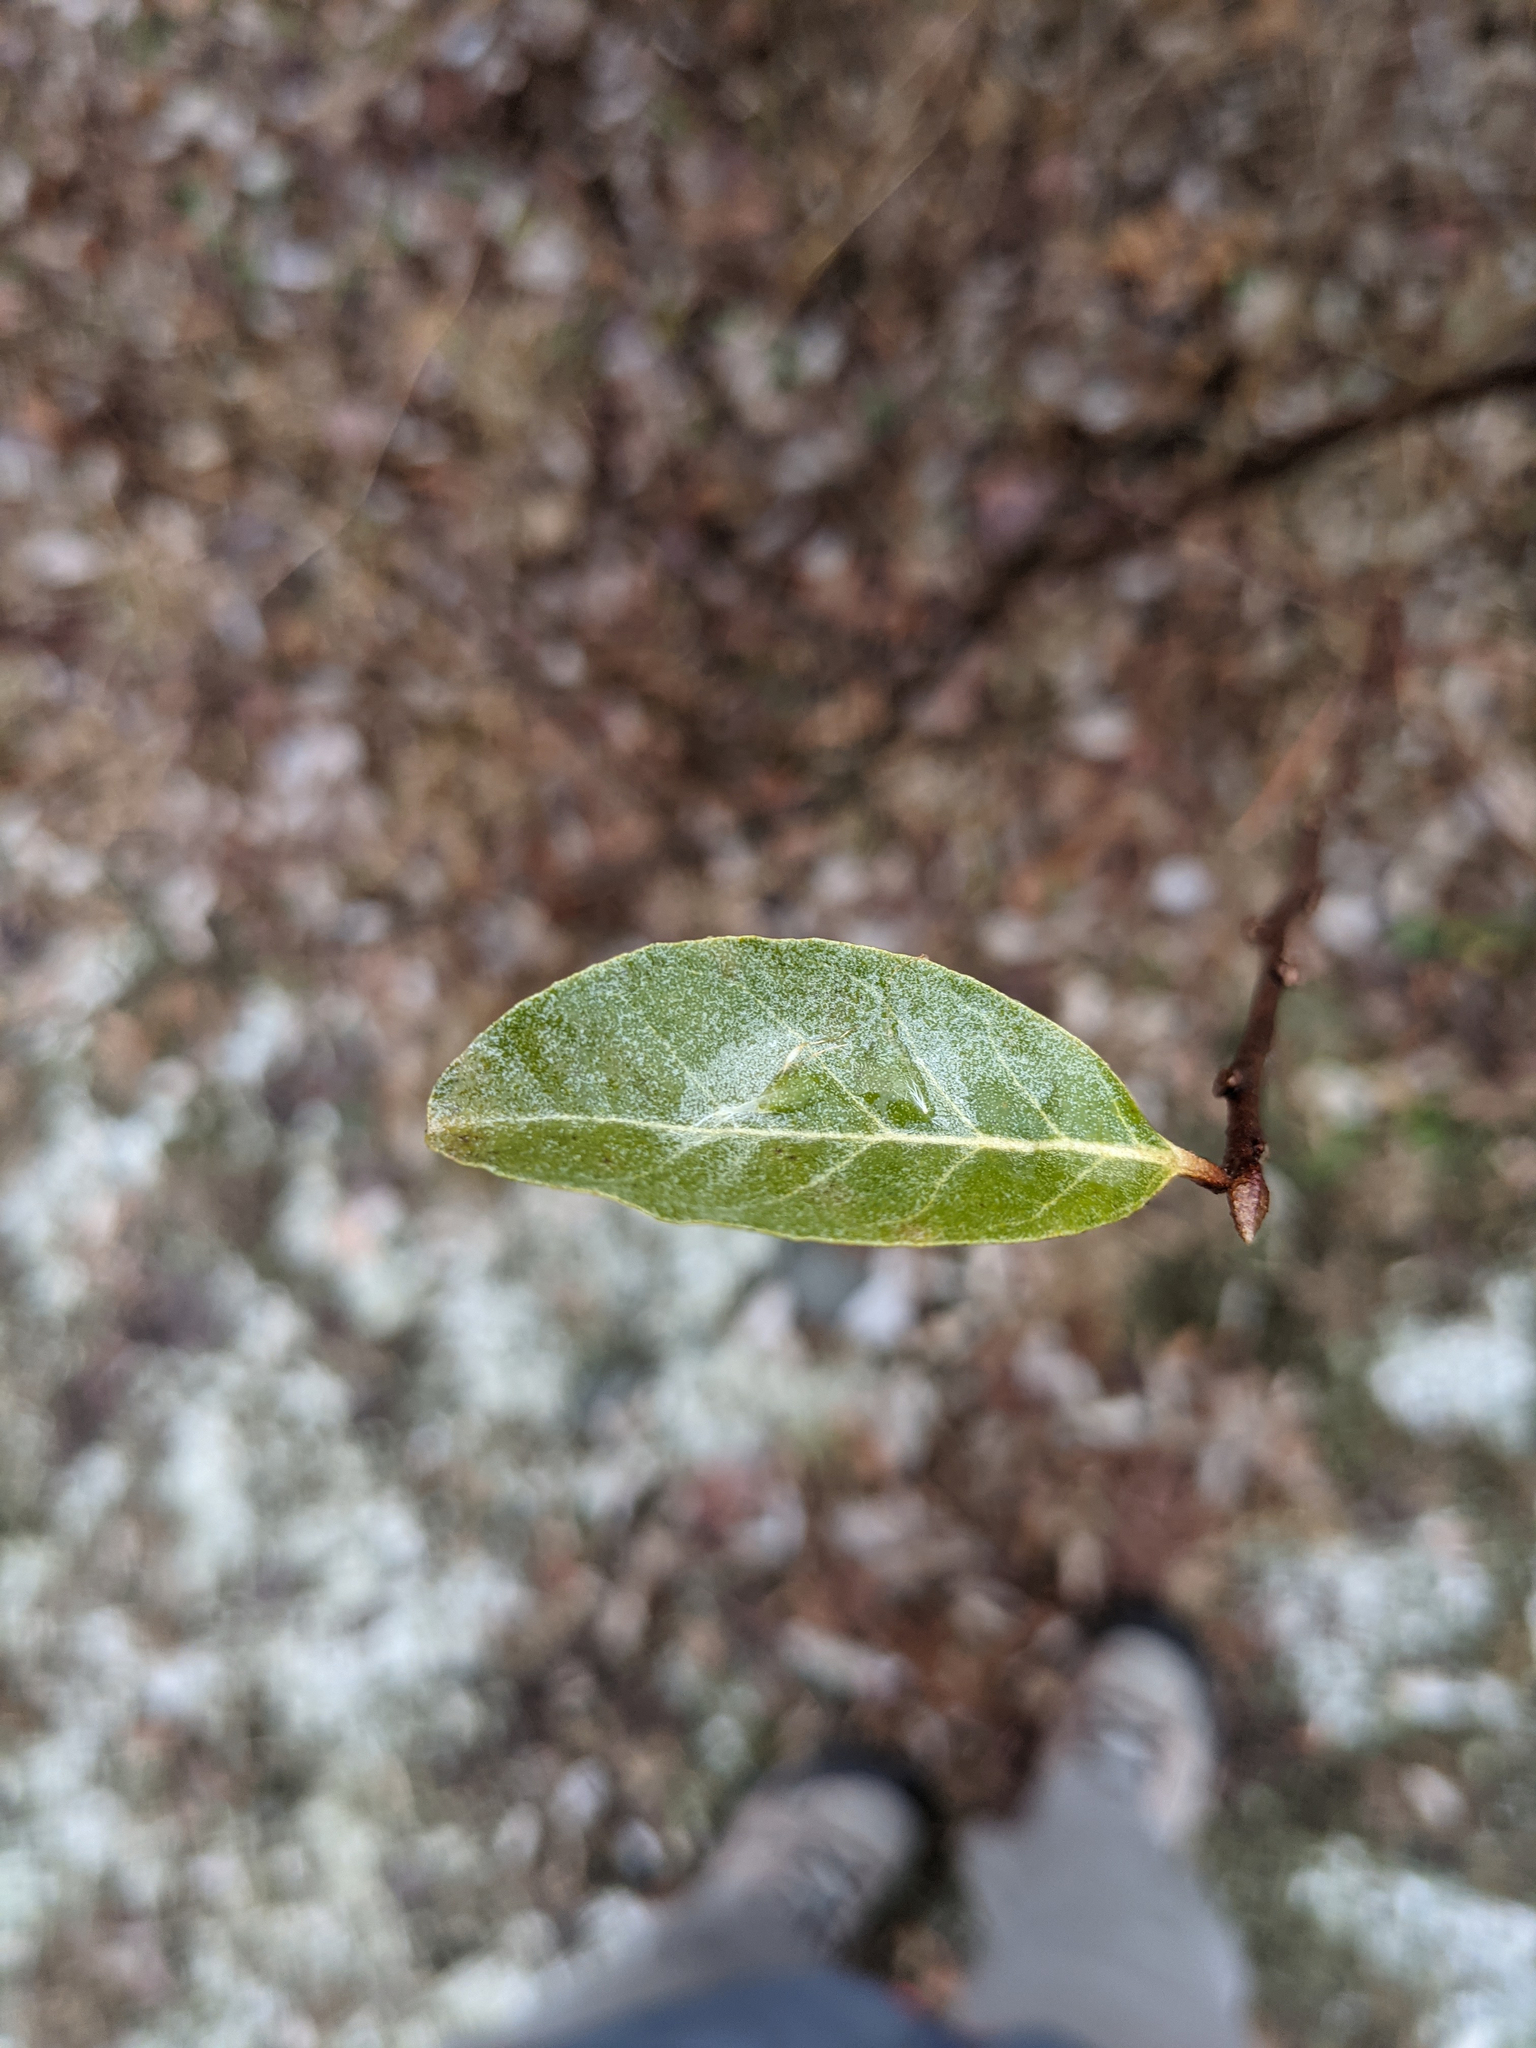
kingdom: Plantae
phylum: Tracheophyta
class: Magnoliopsida
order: Rosales
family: Elaeagnaceae
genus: Elaeagnus
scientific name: Elaeagnus umbellata
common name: Autumn olive
